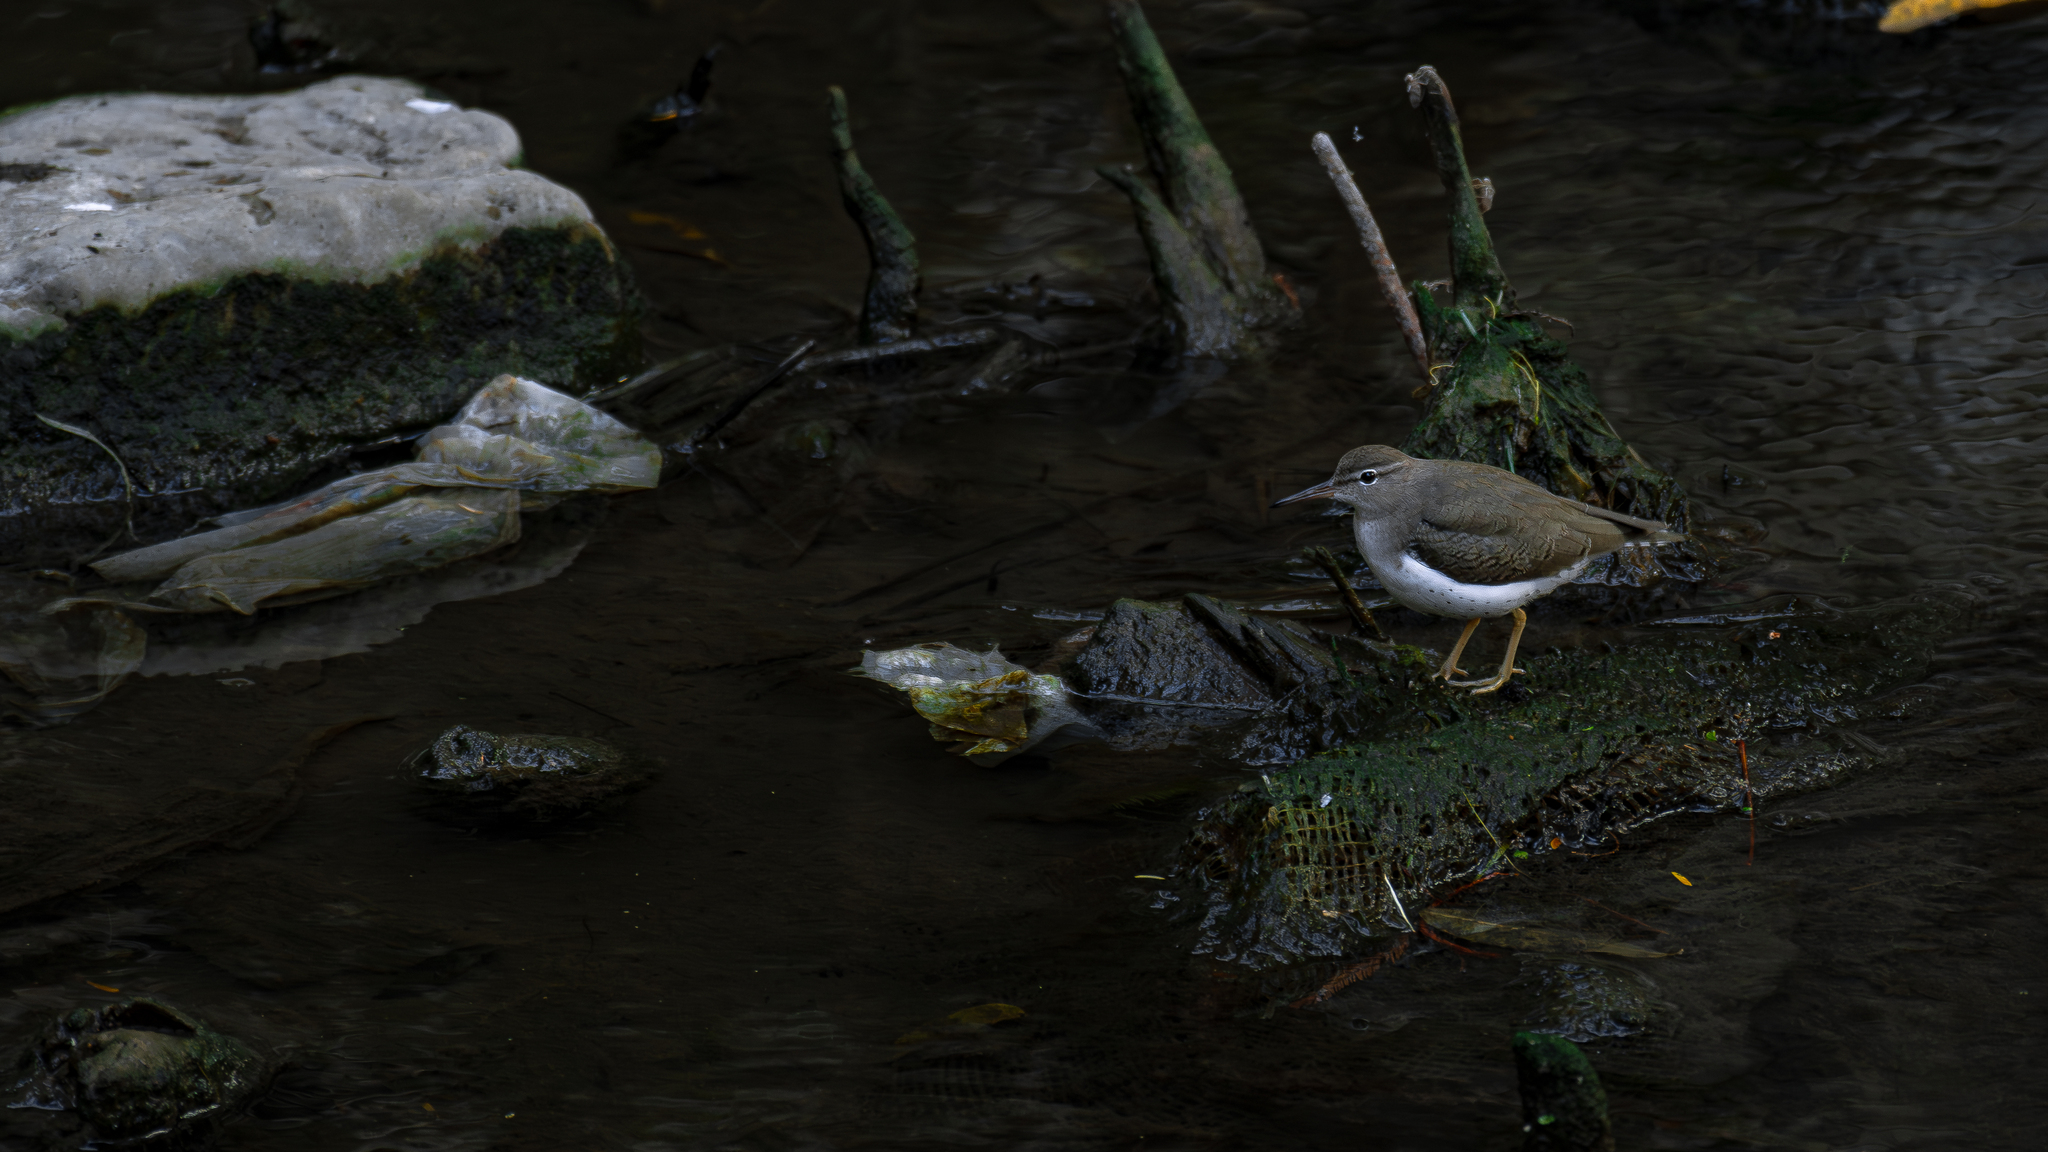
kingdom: Animalia
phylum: Chordata
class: Aves
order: Charadriiformes
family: Scolopacidae
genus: Actitis
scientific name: Actitis macularius
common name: Spotted sandpiper
